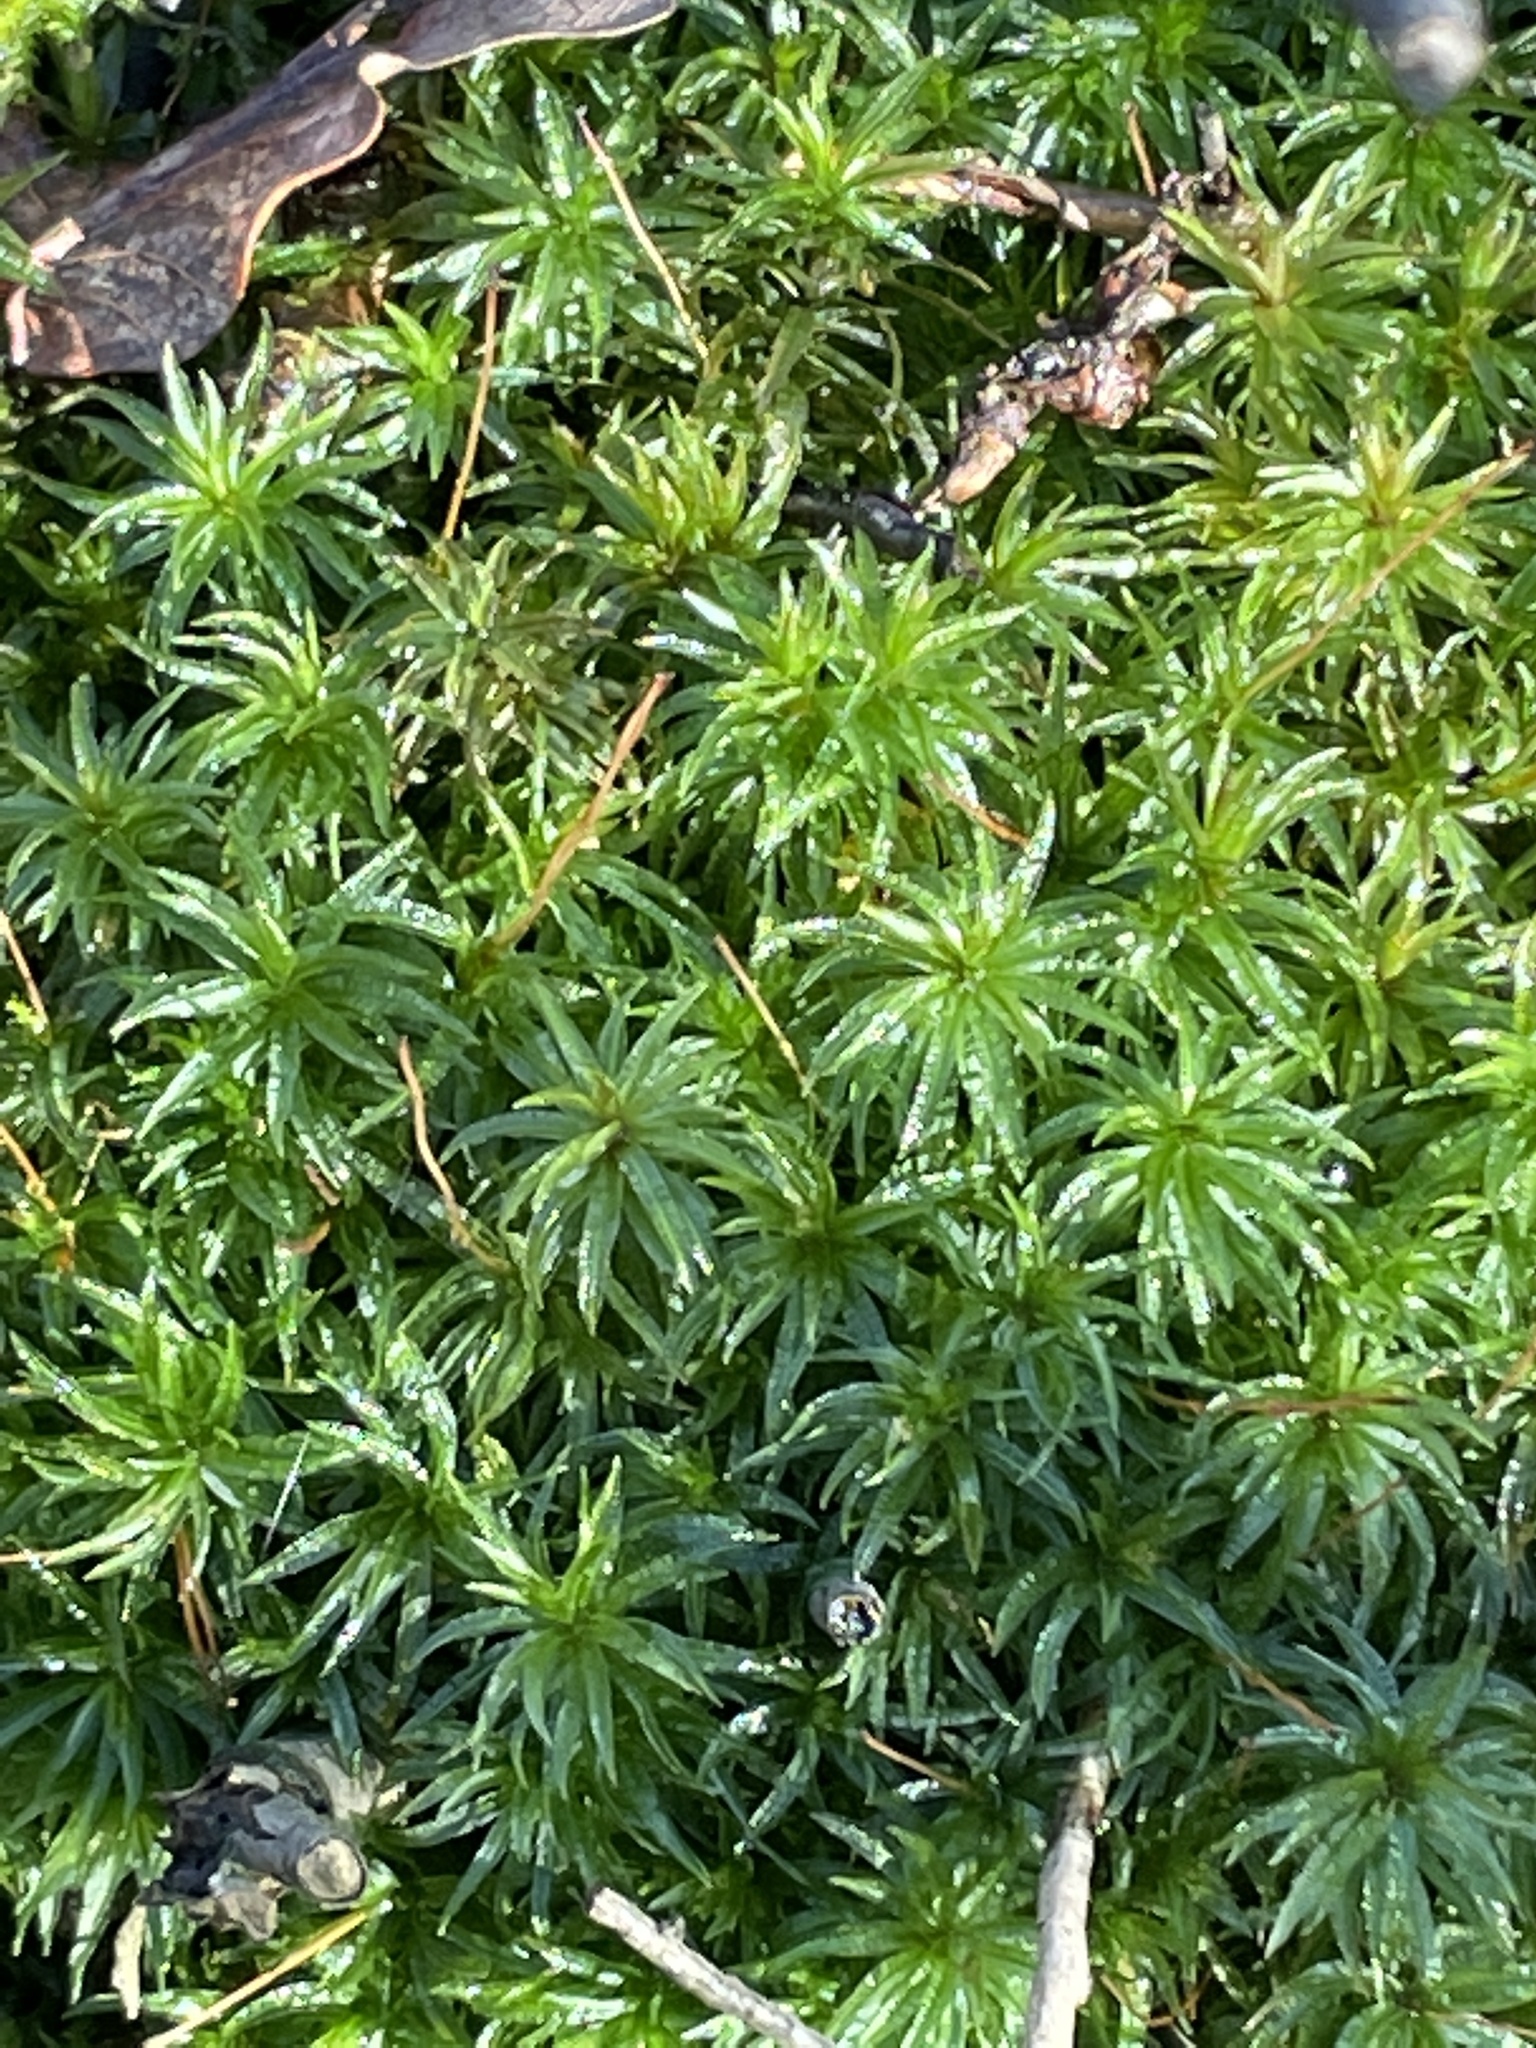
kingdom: Plantae
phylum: Bryophyta
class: Polytrichopsida
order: Polytrichales
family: Polytrichaceae
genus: Atrichum
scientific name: Atrichum undulatum
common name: Common smoothcap
